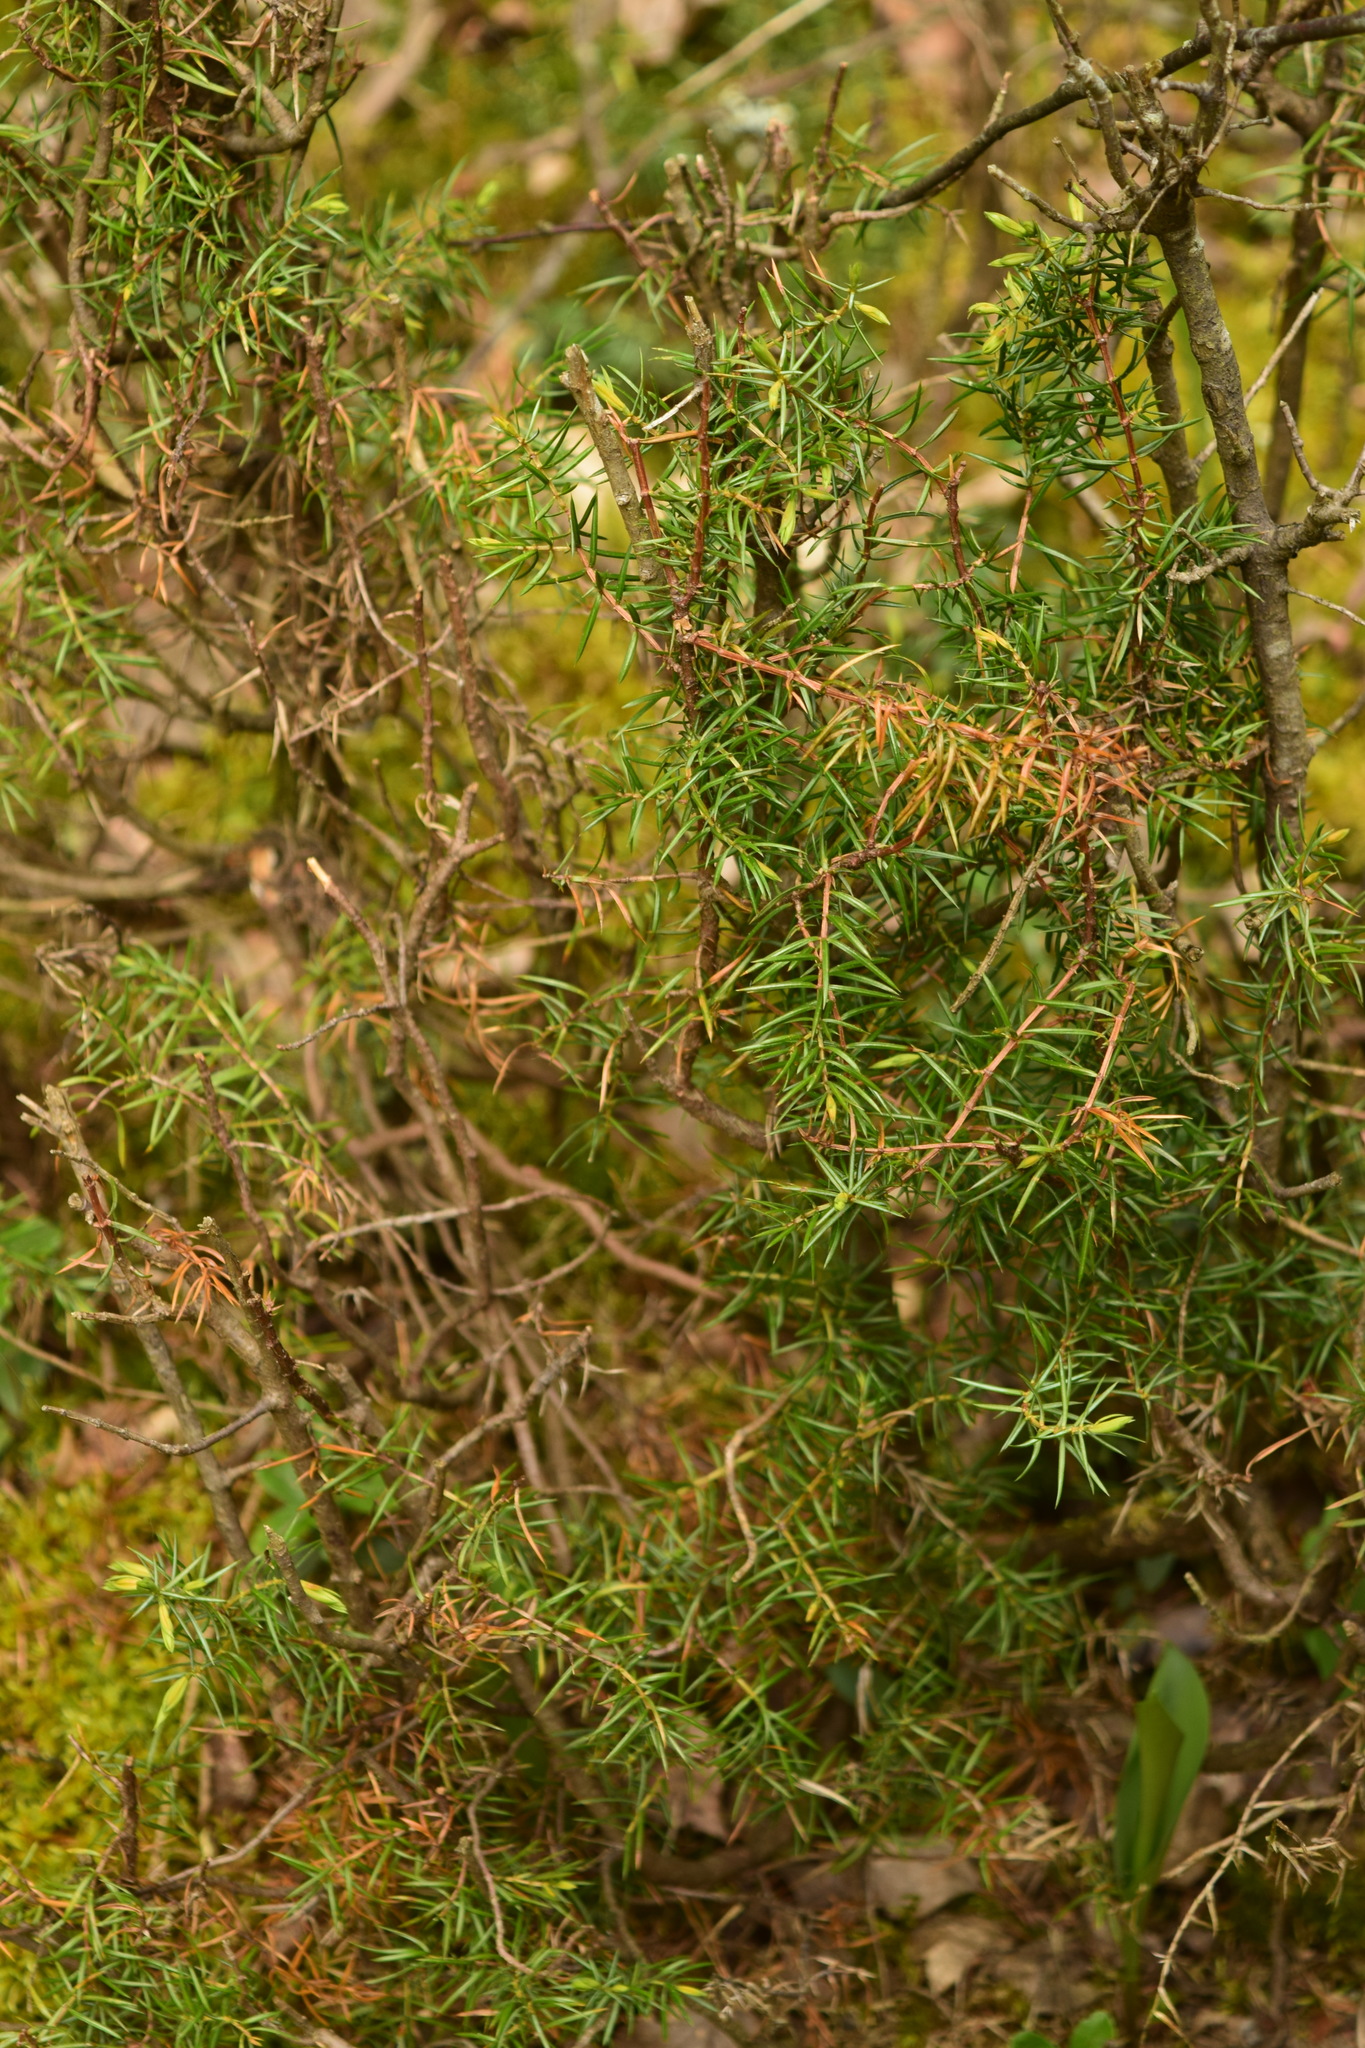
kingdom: Plantae
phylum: Tracheophyta
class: Pinopsida
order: Pinales
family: Cupressaceae
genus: Juniperus
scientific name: Juniperus communis
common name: Common juniper
